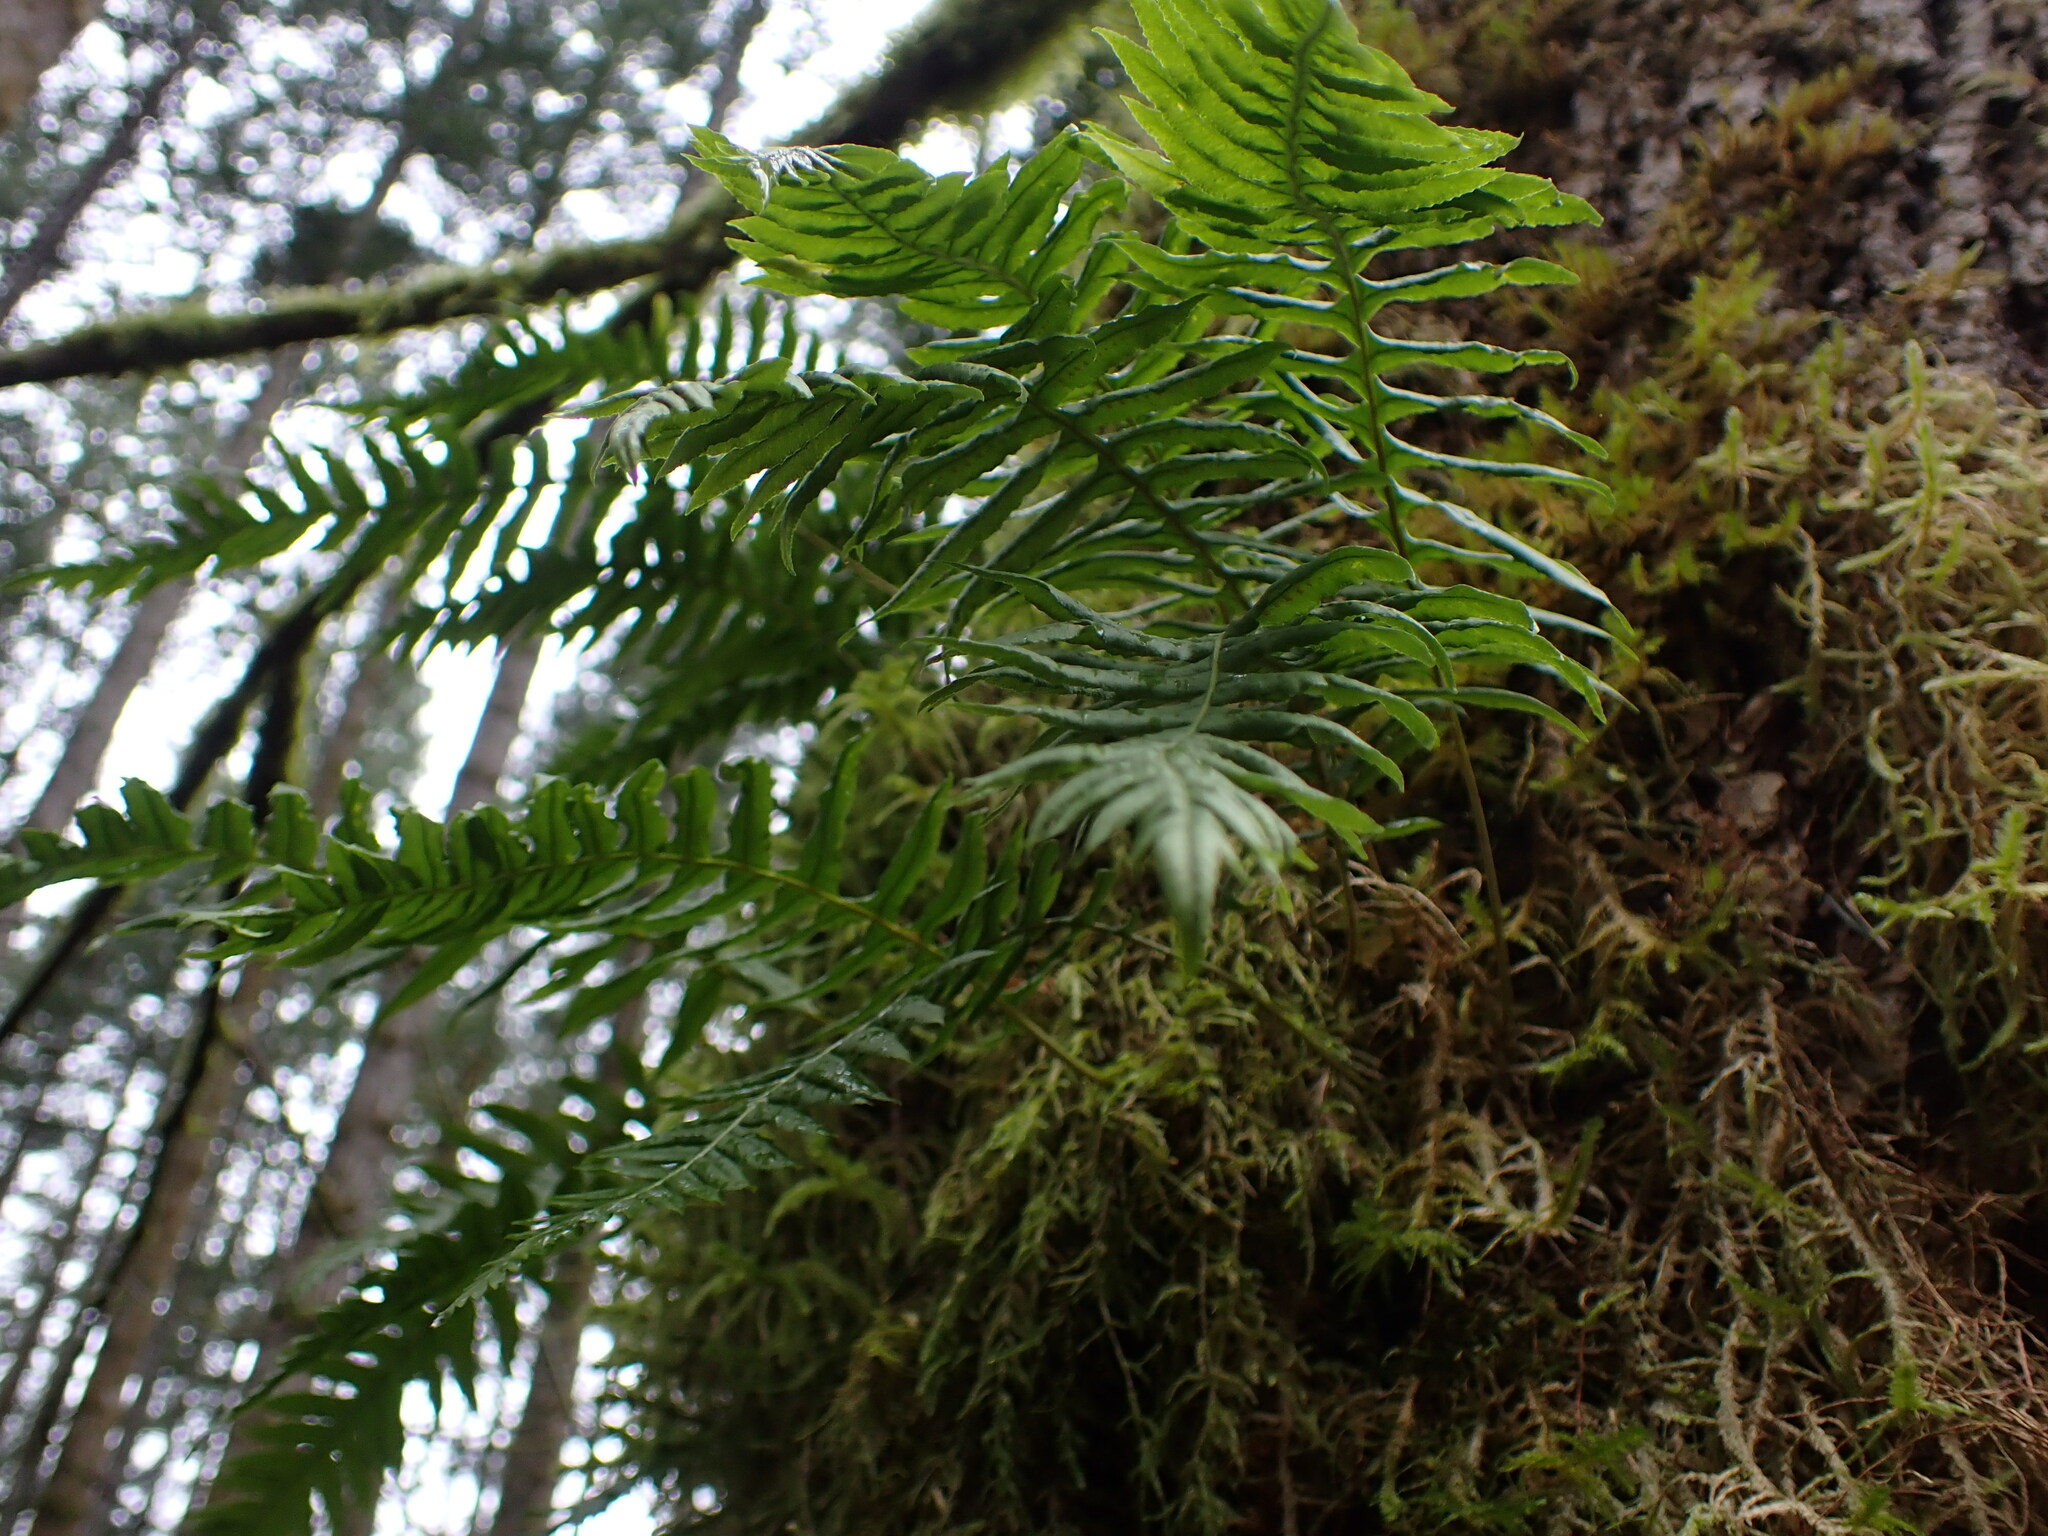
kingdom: Plantae
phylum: Tracheophyta
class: Polypodiopsida
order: Polypodiales
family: Polypodiaceae
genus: Polypodium
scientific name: Polypodium glycyrrhiza
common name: Licorice fern
